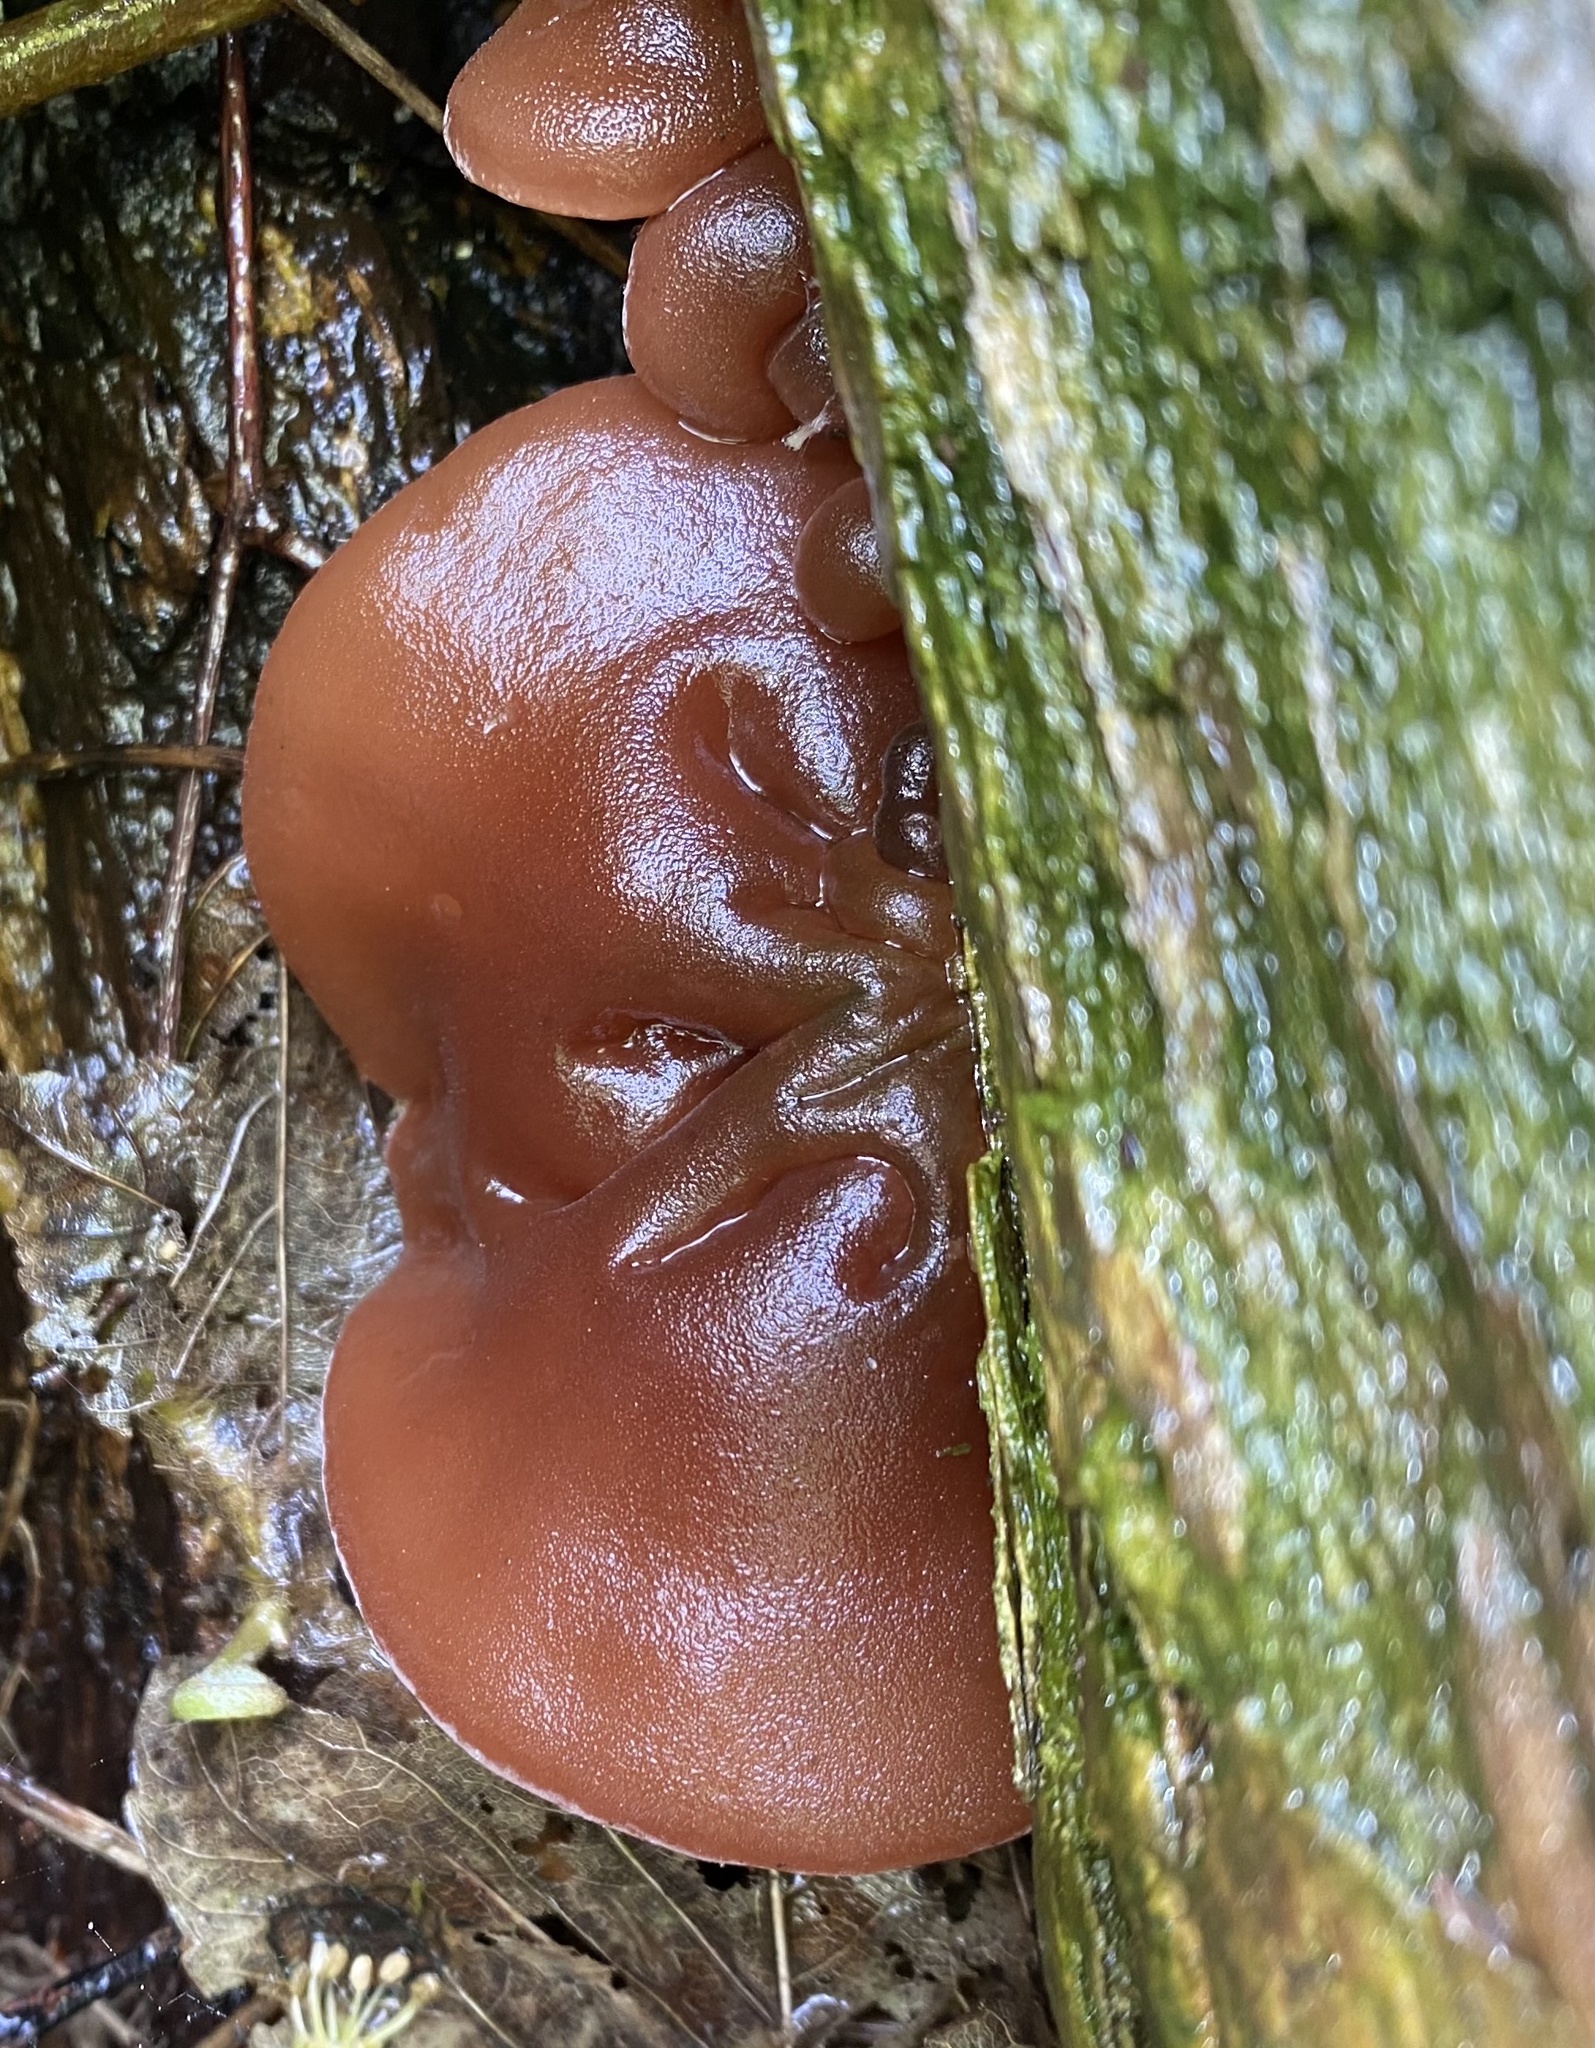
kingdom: Fungi
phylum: Basidiomycota
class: Agaricomycetes
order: Auriculariales
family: Auriculariaceae
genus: Auricularia
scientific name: Auricularia auricula-judae
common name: Jelly ear
